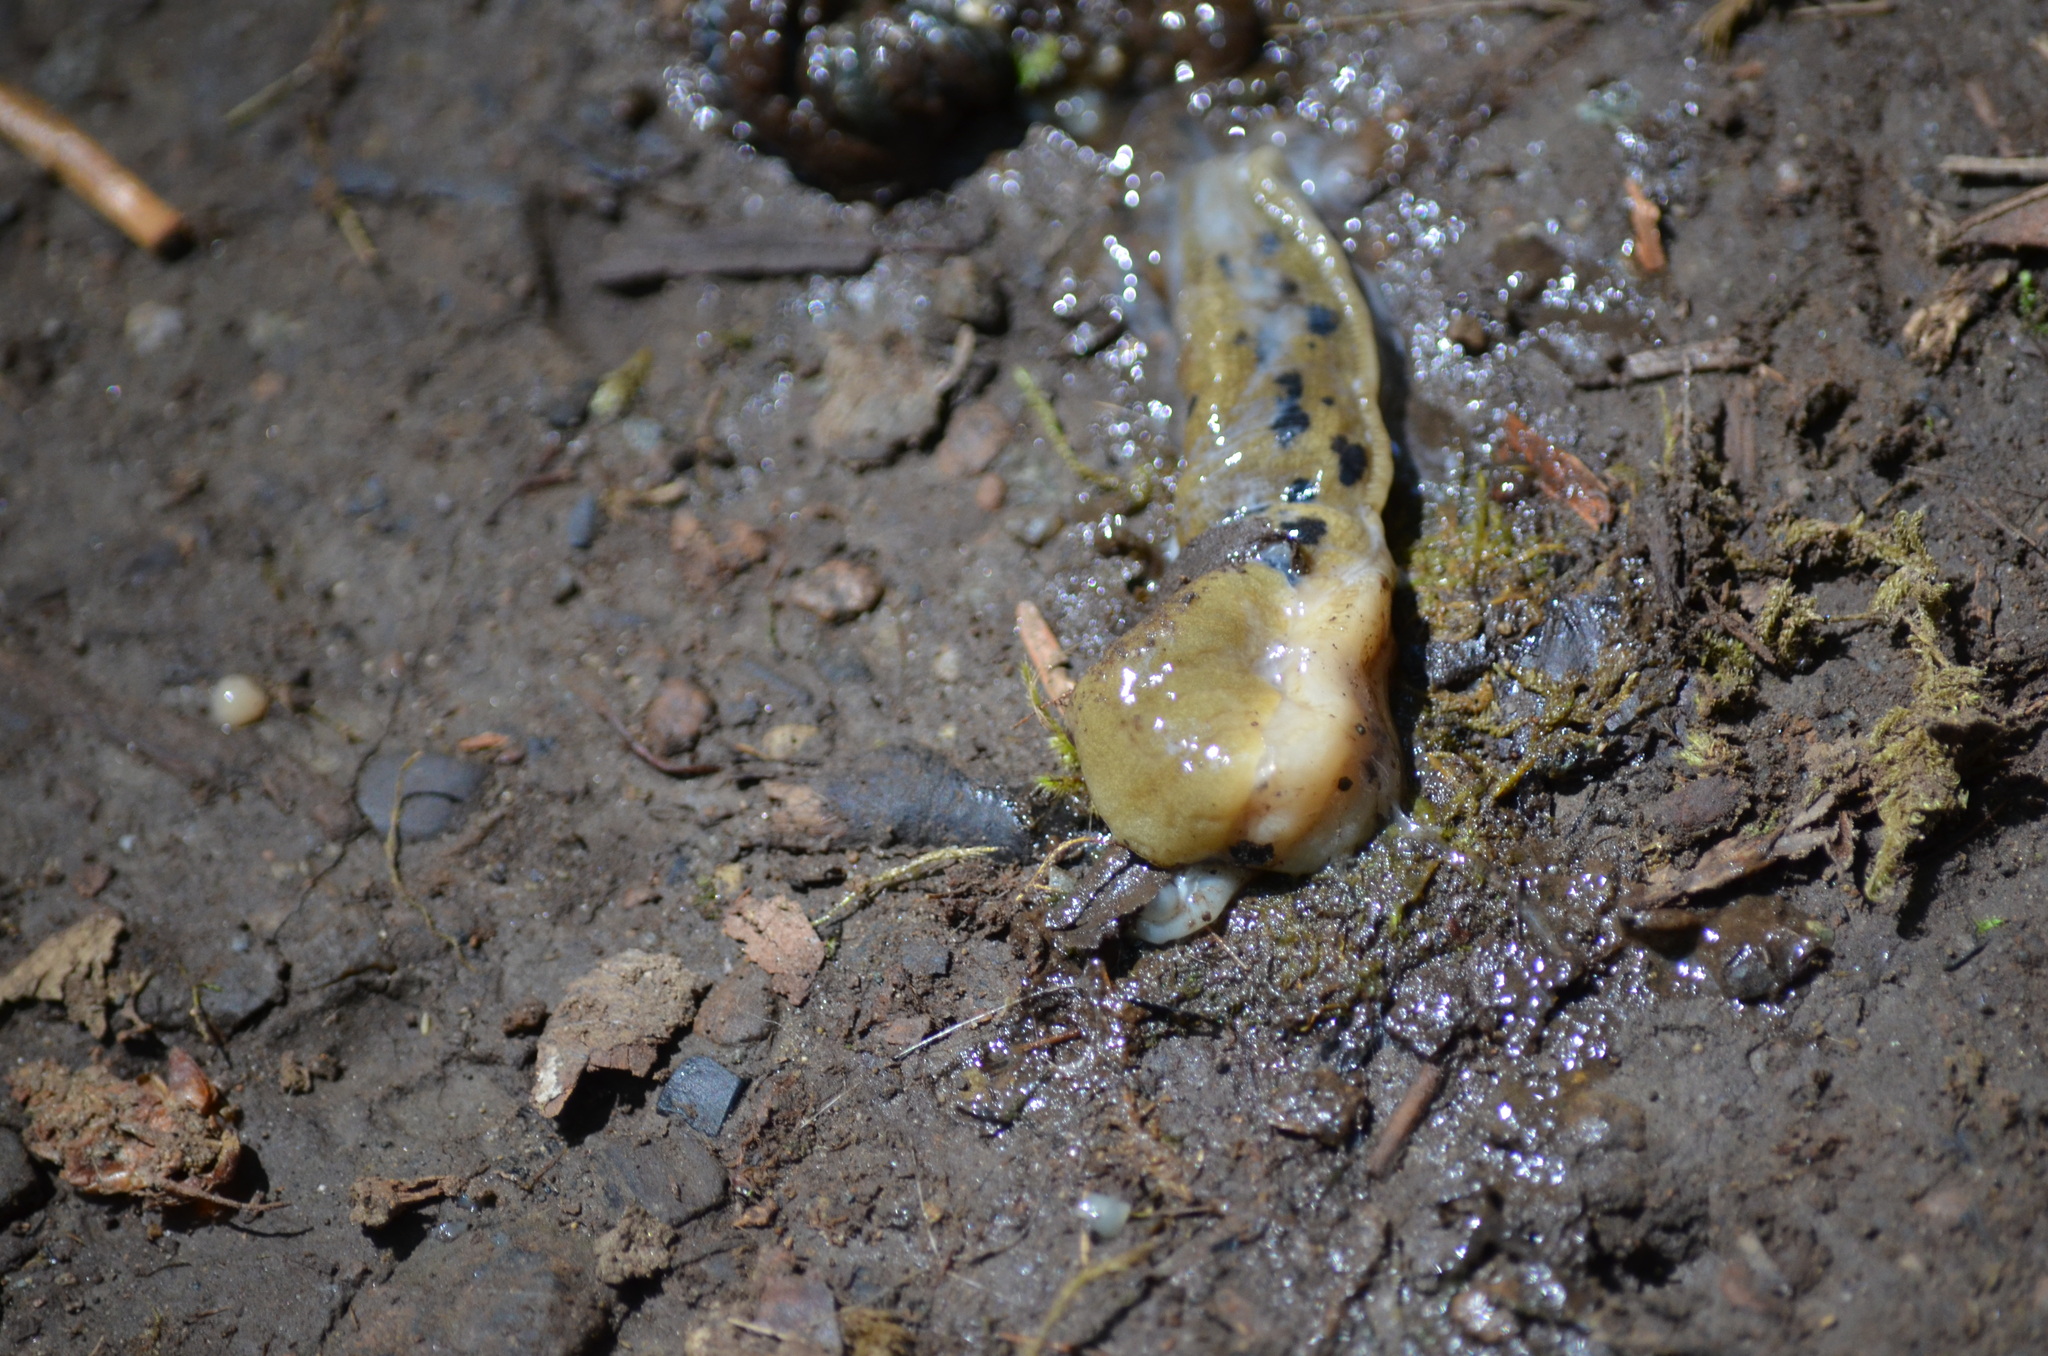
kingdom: Animalia
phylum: Mollusca
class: Gastropoda
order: Stylommatophora
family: Ariolimacidae
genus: Ariolimax
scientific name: Ariolimax columbianus
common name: Pacific banana slug
